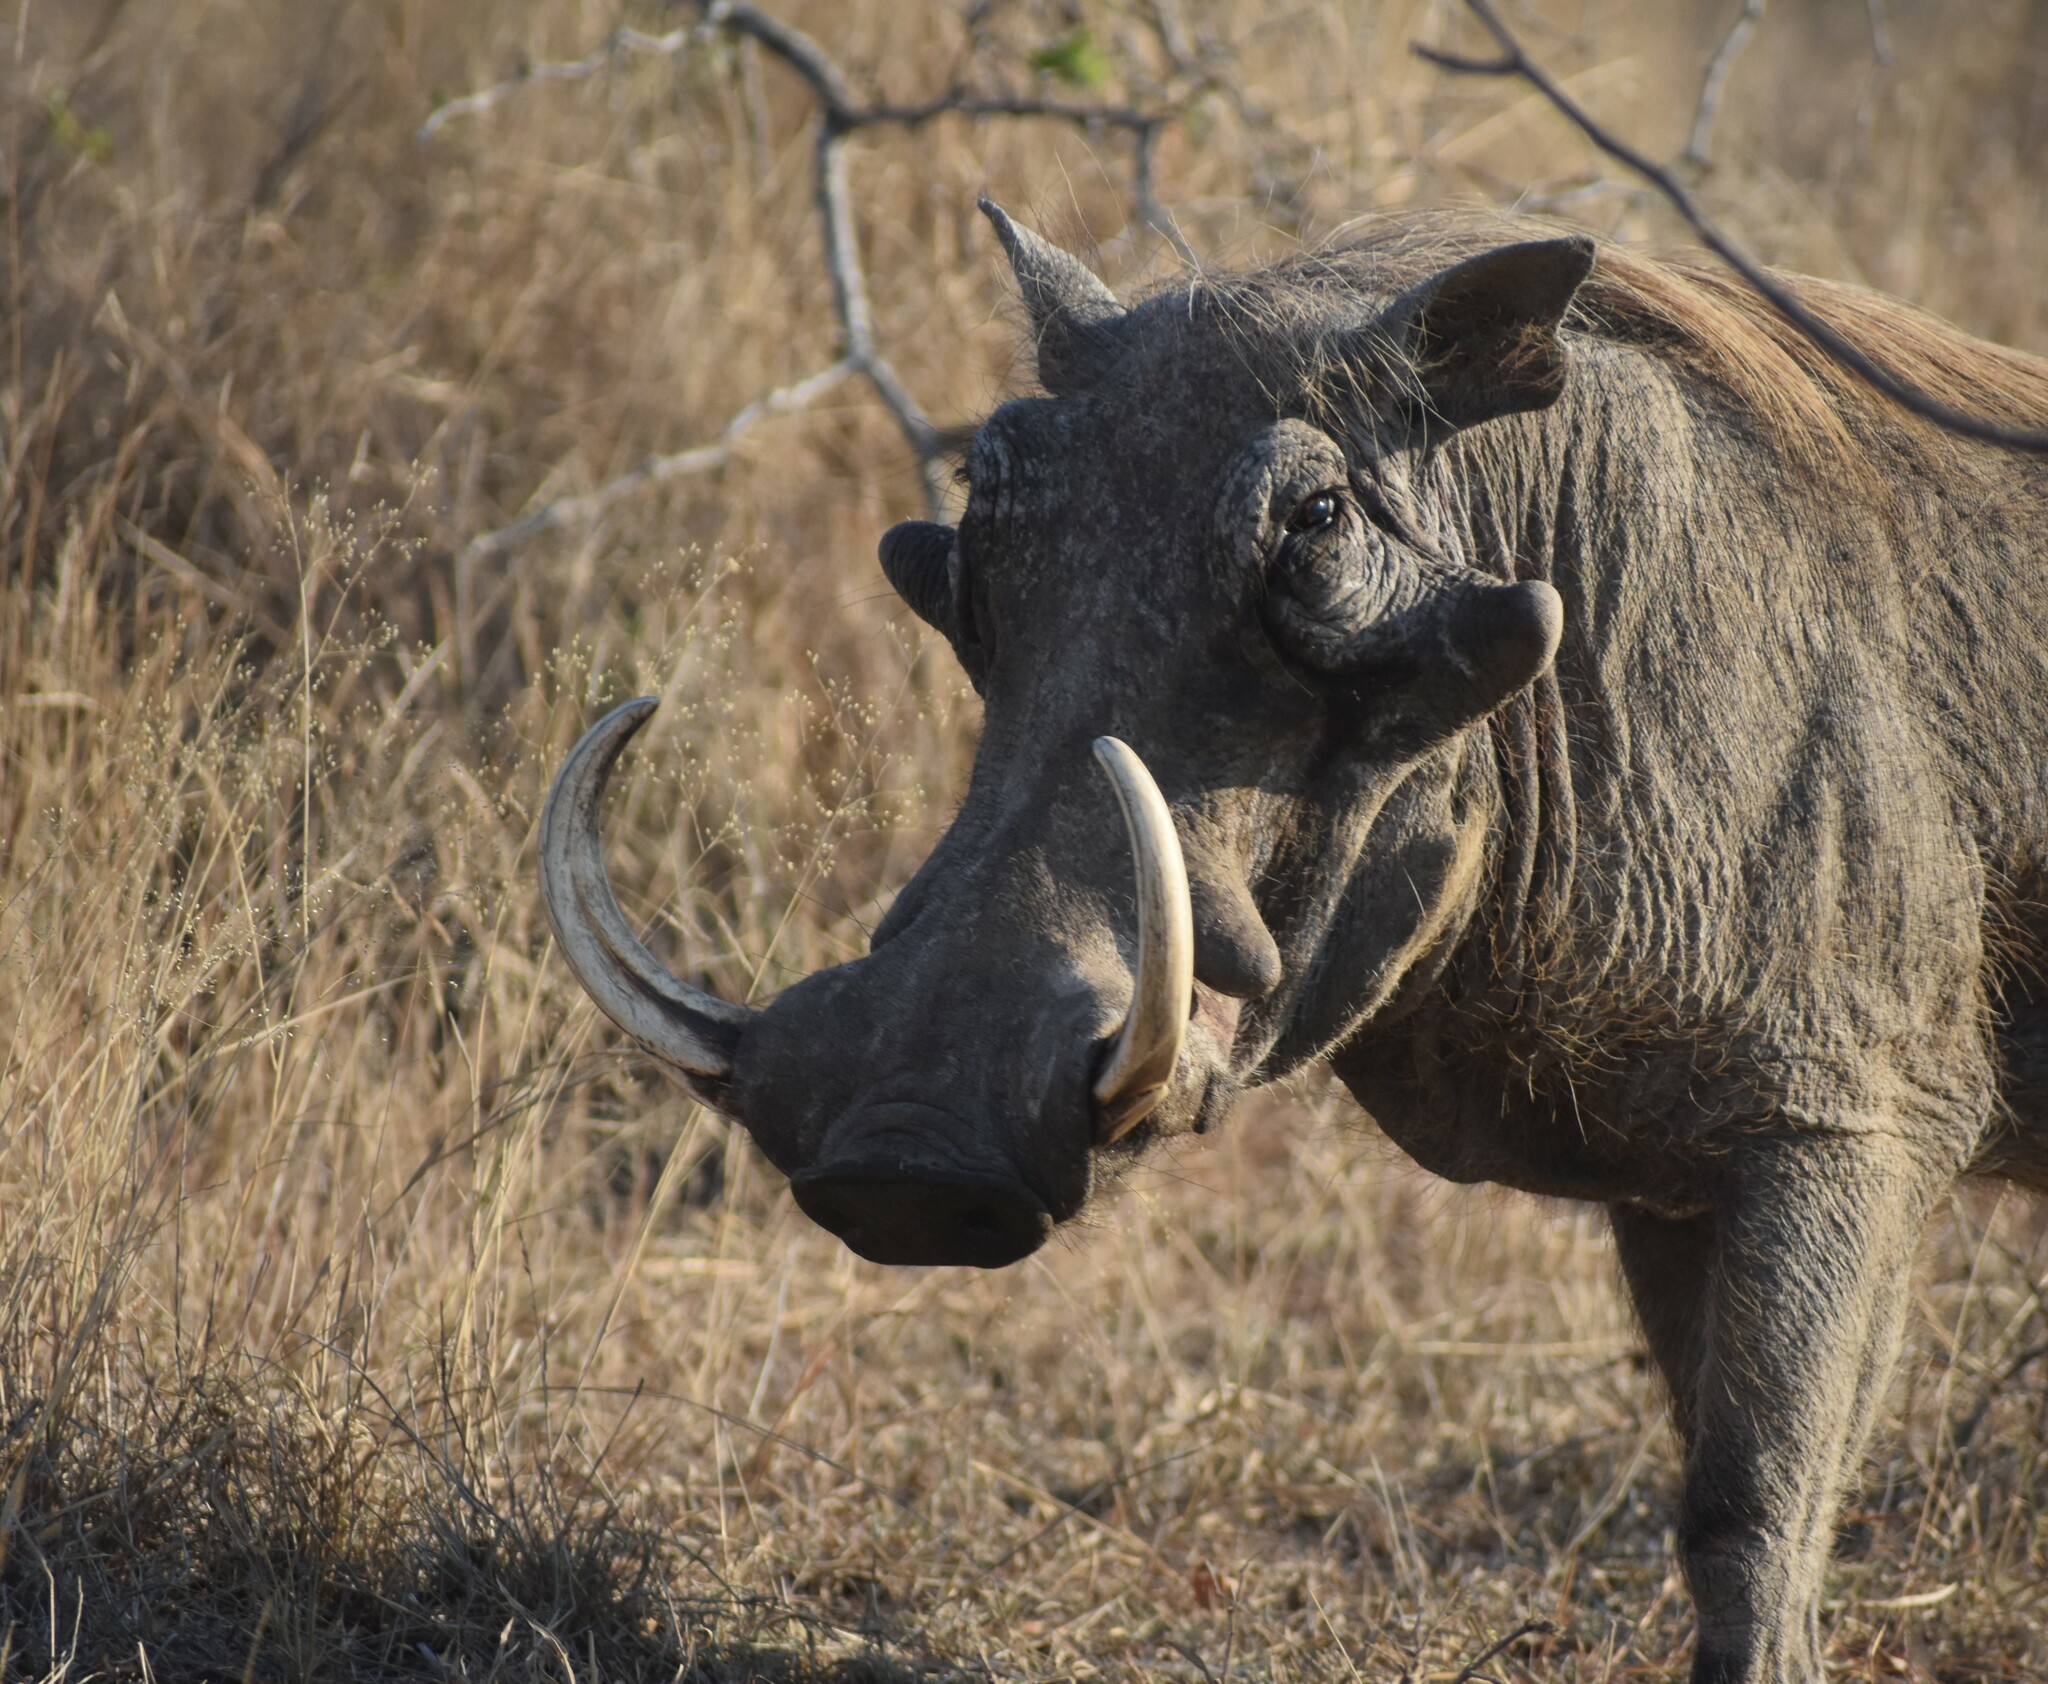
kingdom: Animalia
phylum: Chordata
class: Mammalia
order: Artiodactyla
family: Suidae
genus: Phacochoerus
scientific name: Phacochoerus africanus
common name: Common warthog
